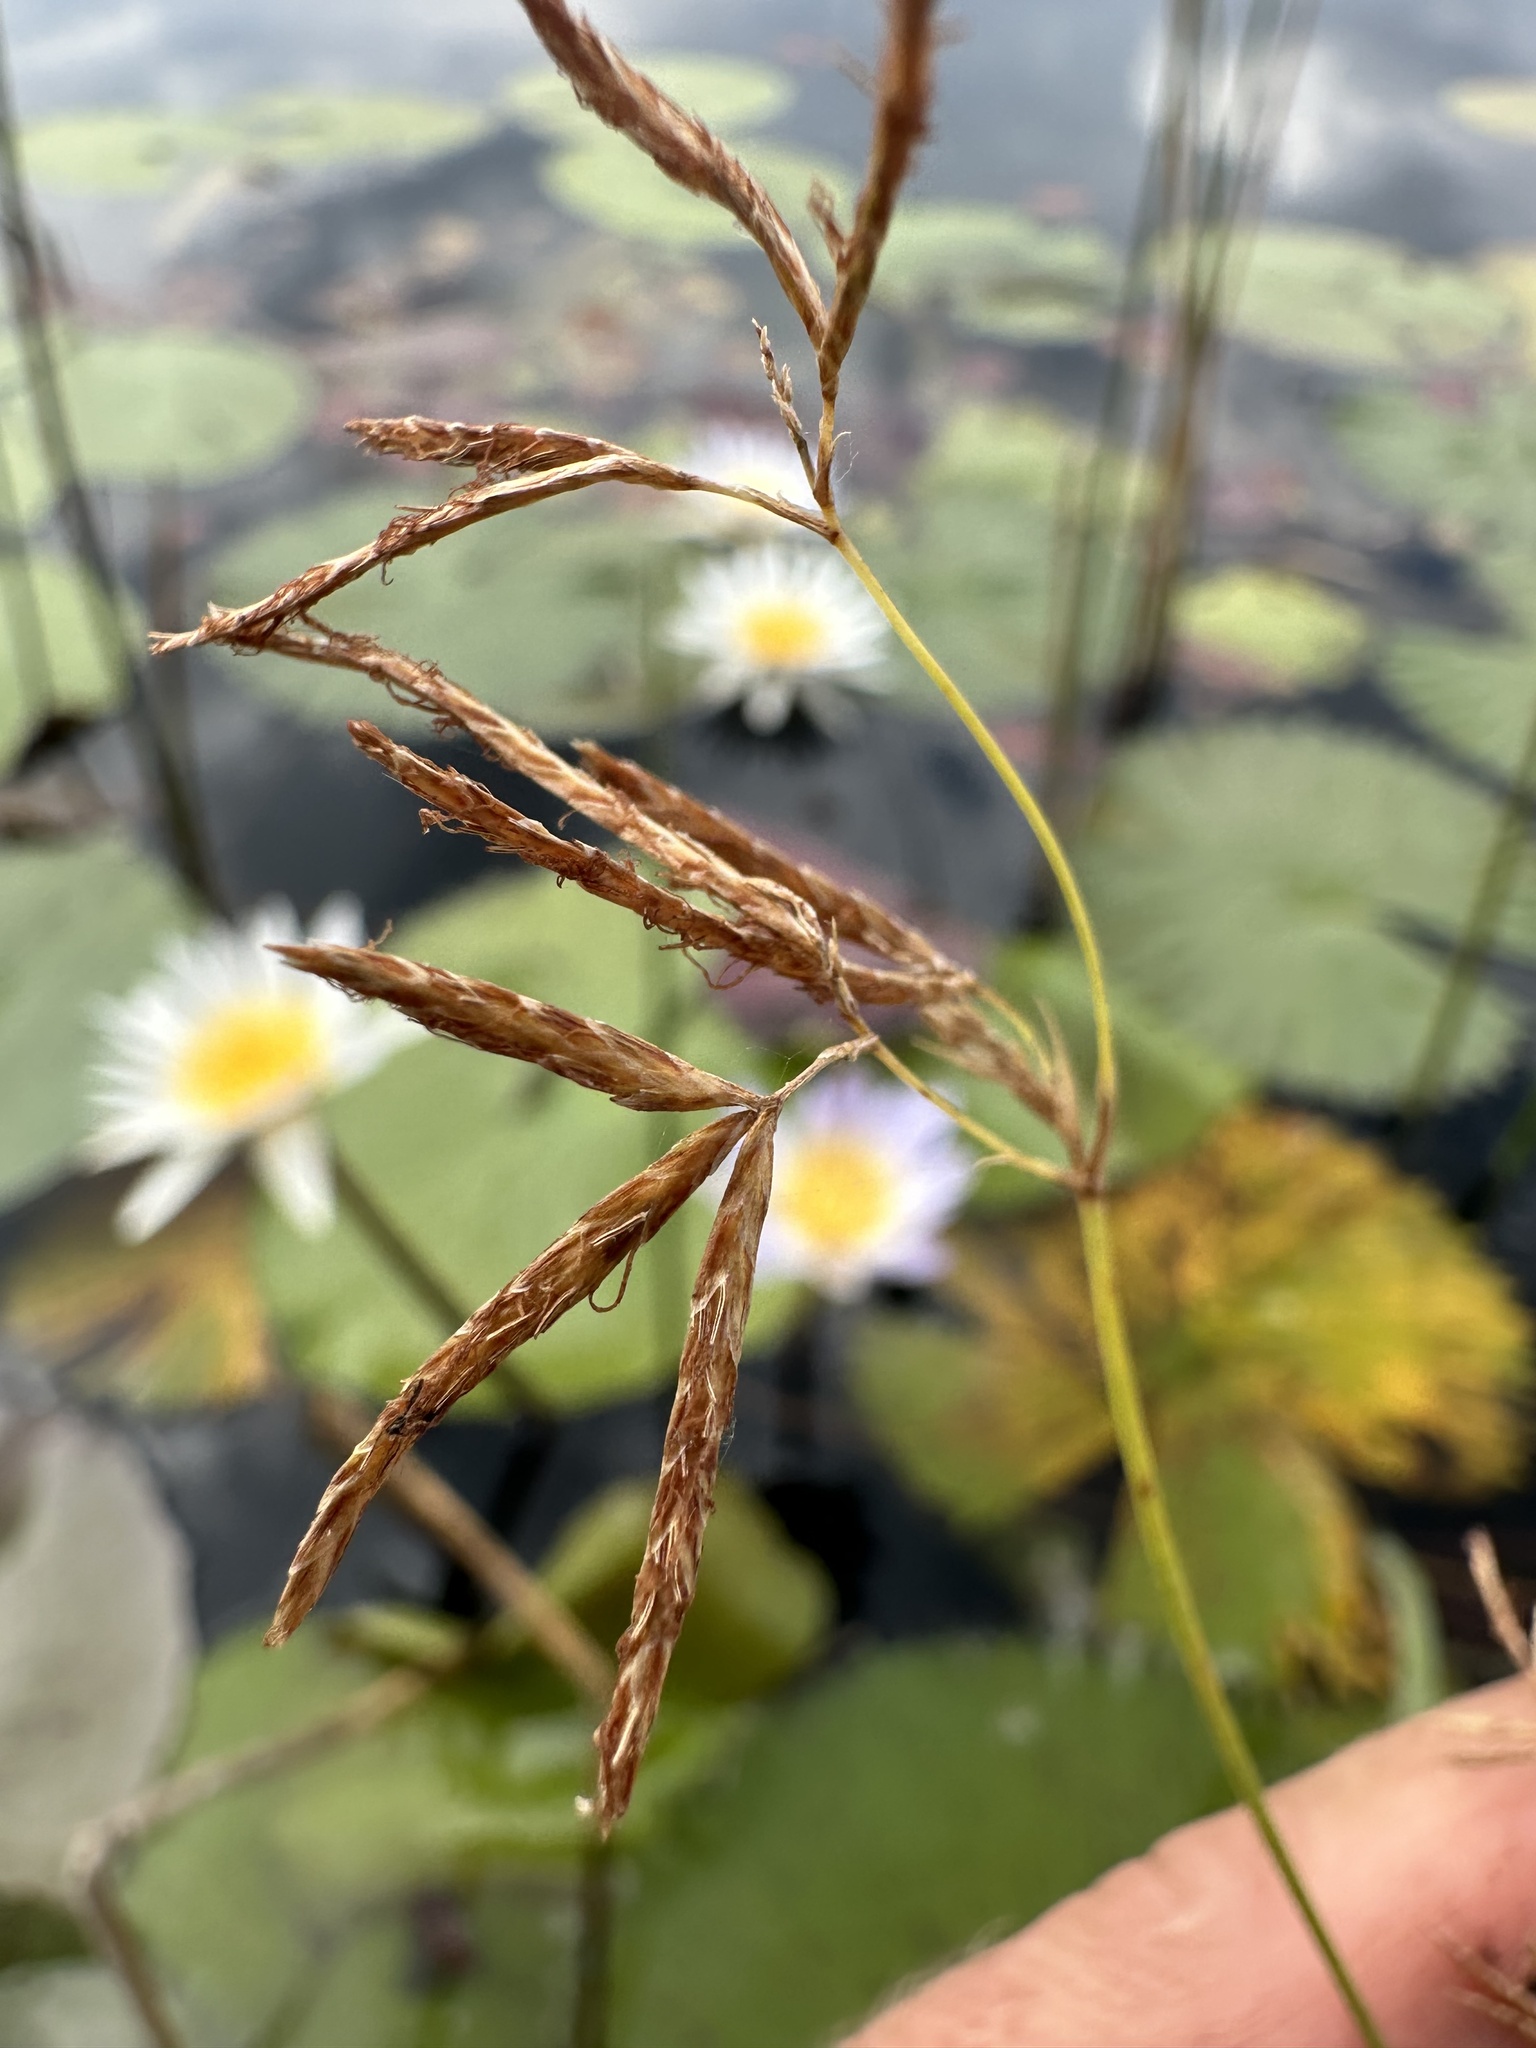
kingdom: Plantae
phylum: Tracheophyta
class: Liliopsida
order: Poales
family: Cyperaceae
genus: Cyperus
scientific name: Cyperus articulatus
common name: Jointed flatsedge
